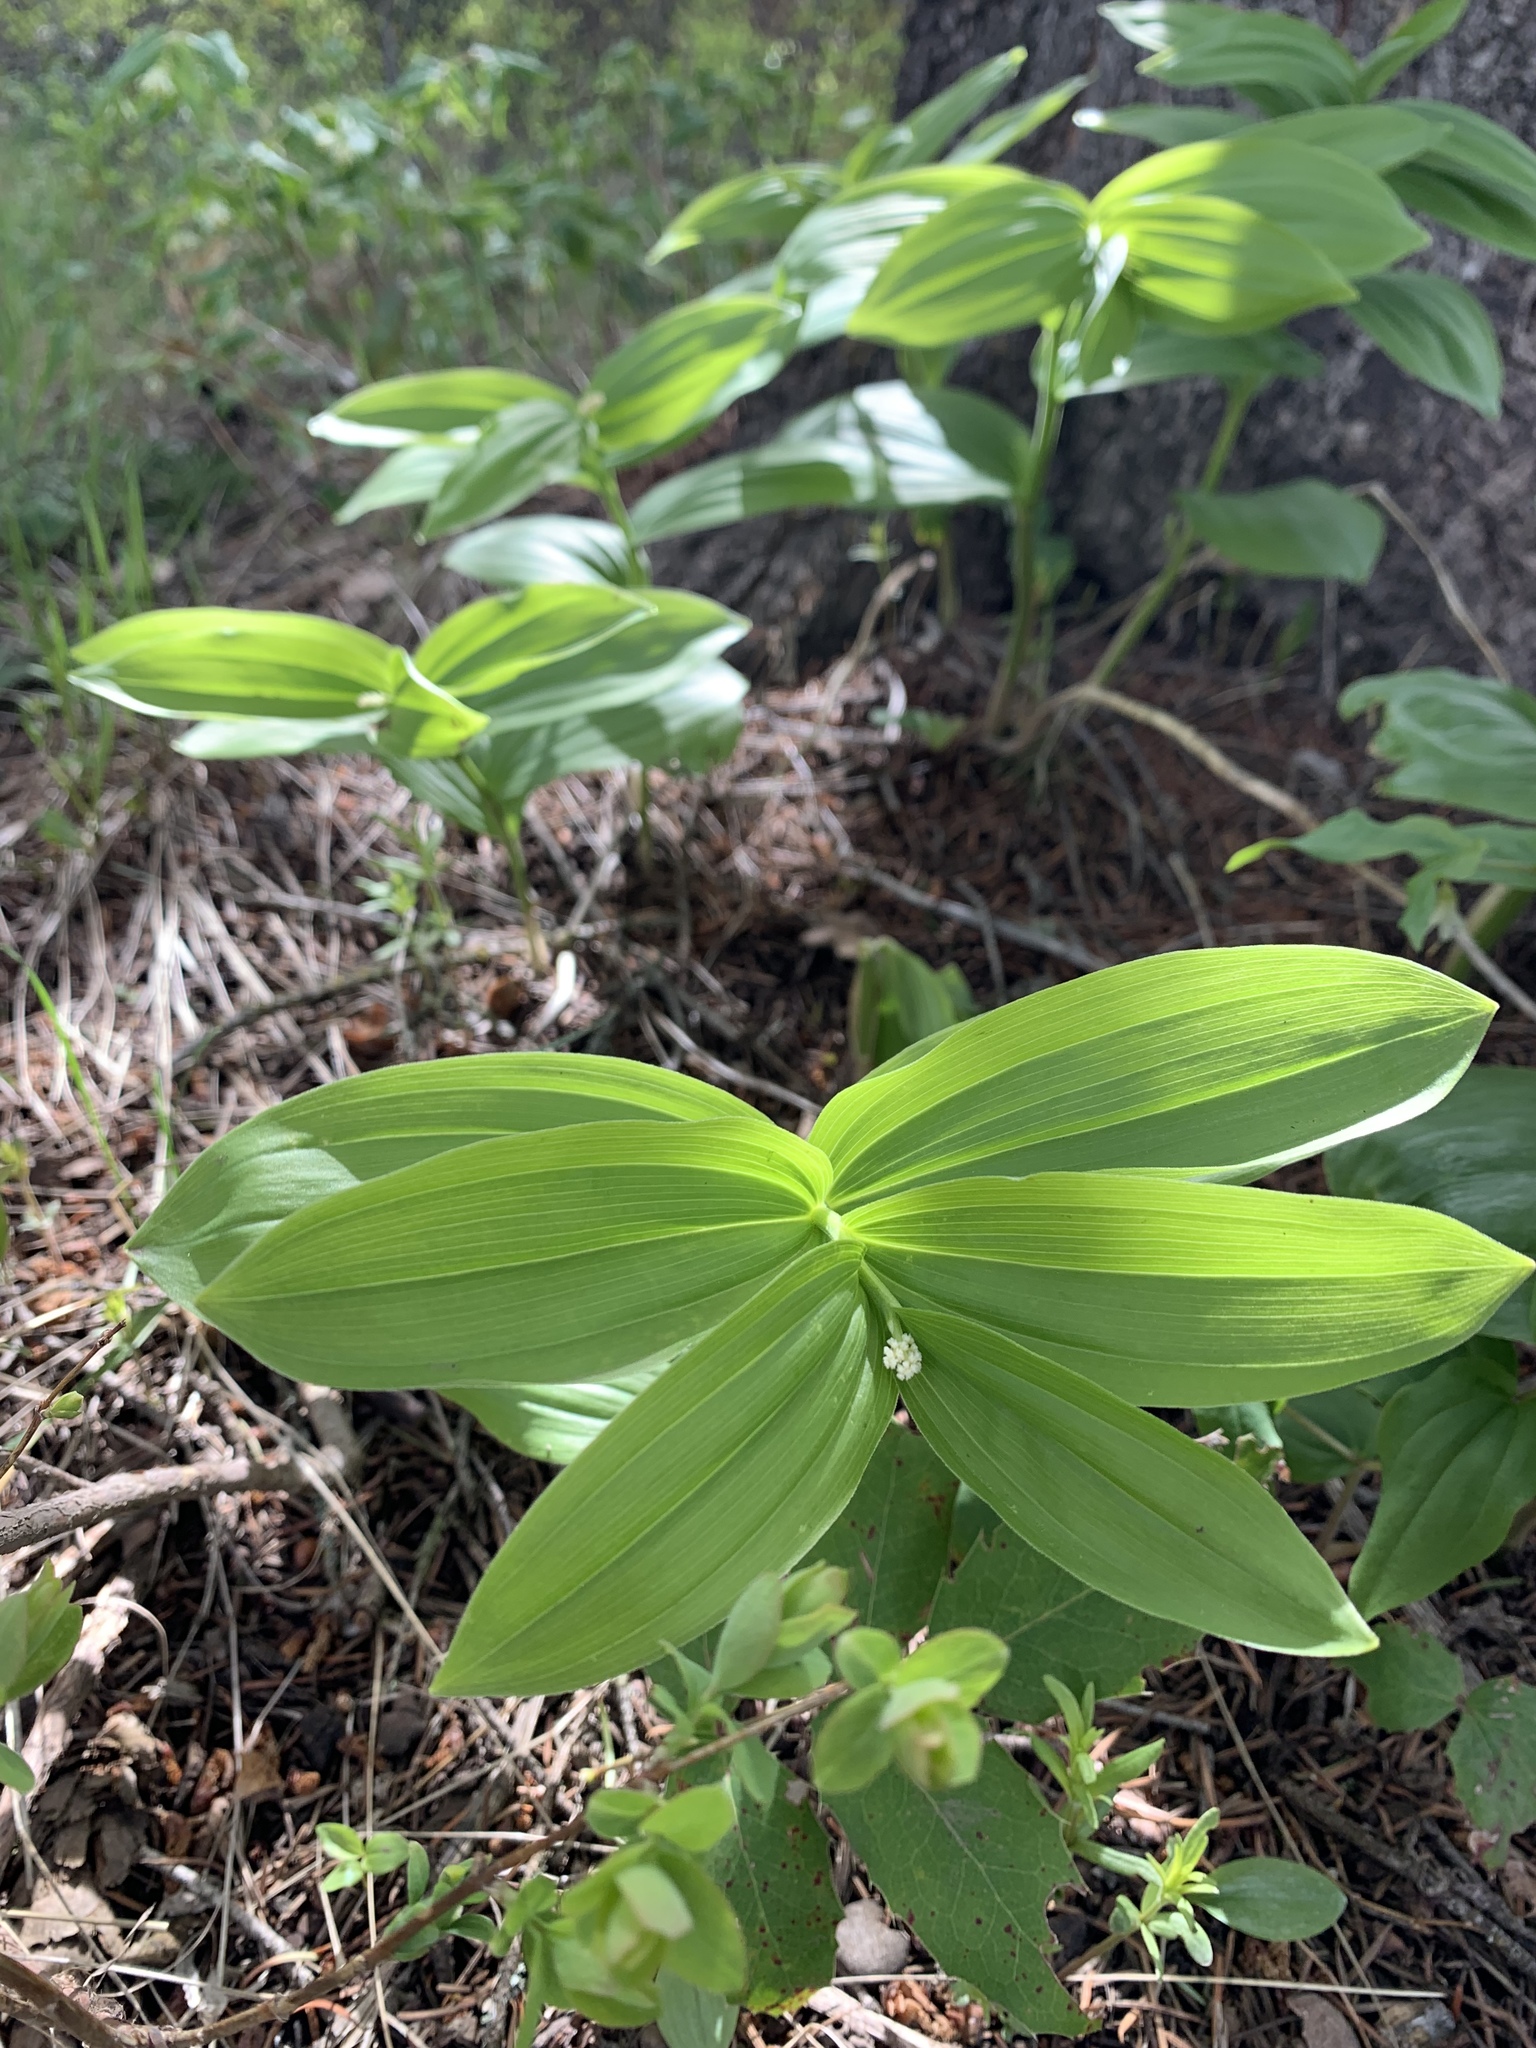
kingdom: Plantae
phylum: Tracheophyta
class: Liliopsida
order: Asparagales
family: Asparagaceae
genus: Maianthemum
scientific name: Maianthemum racemosum
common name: False spikenard
